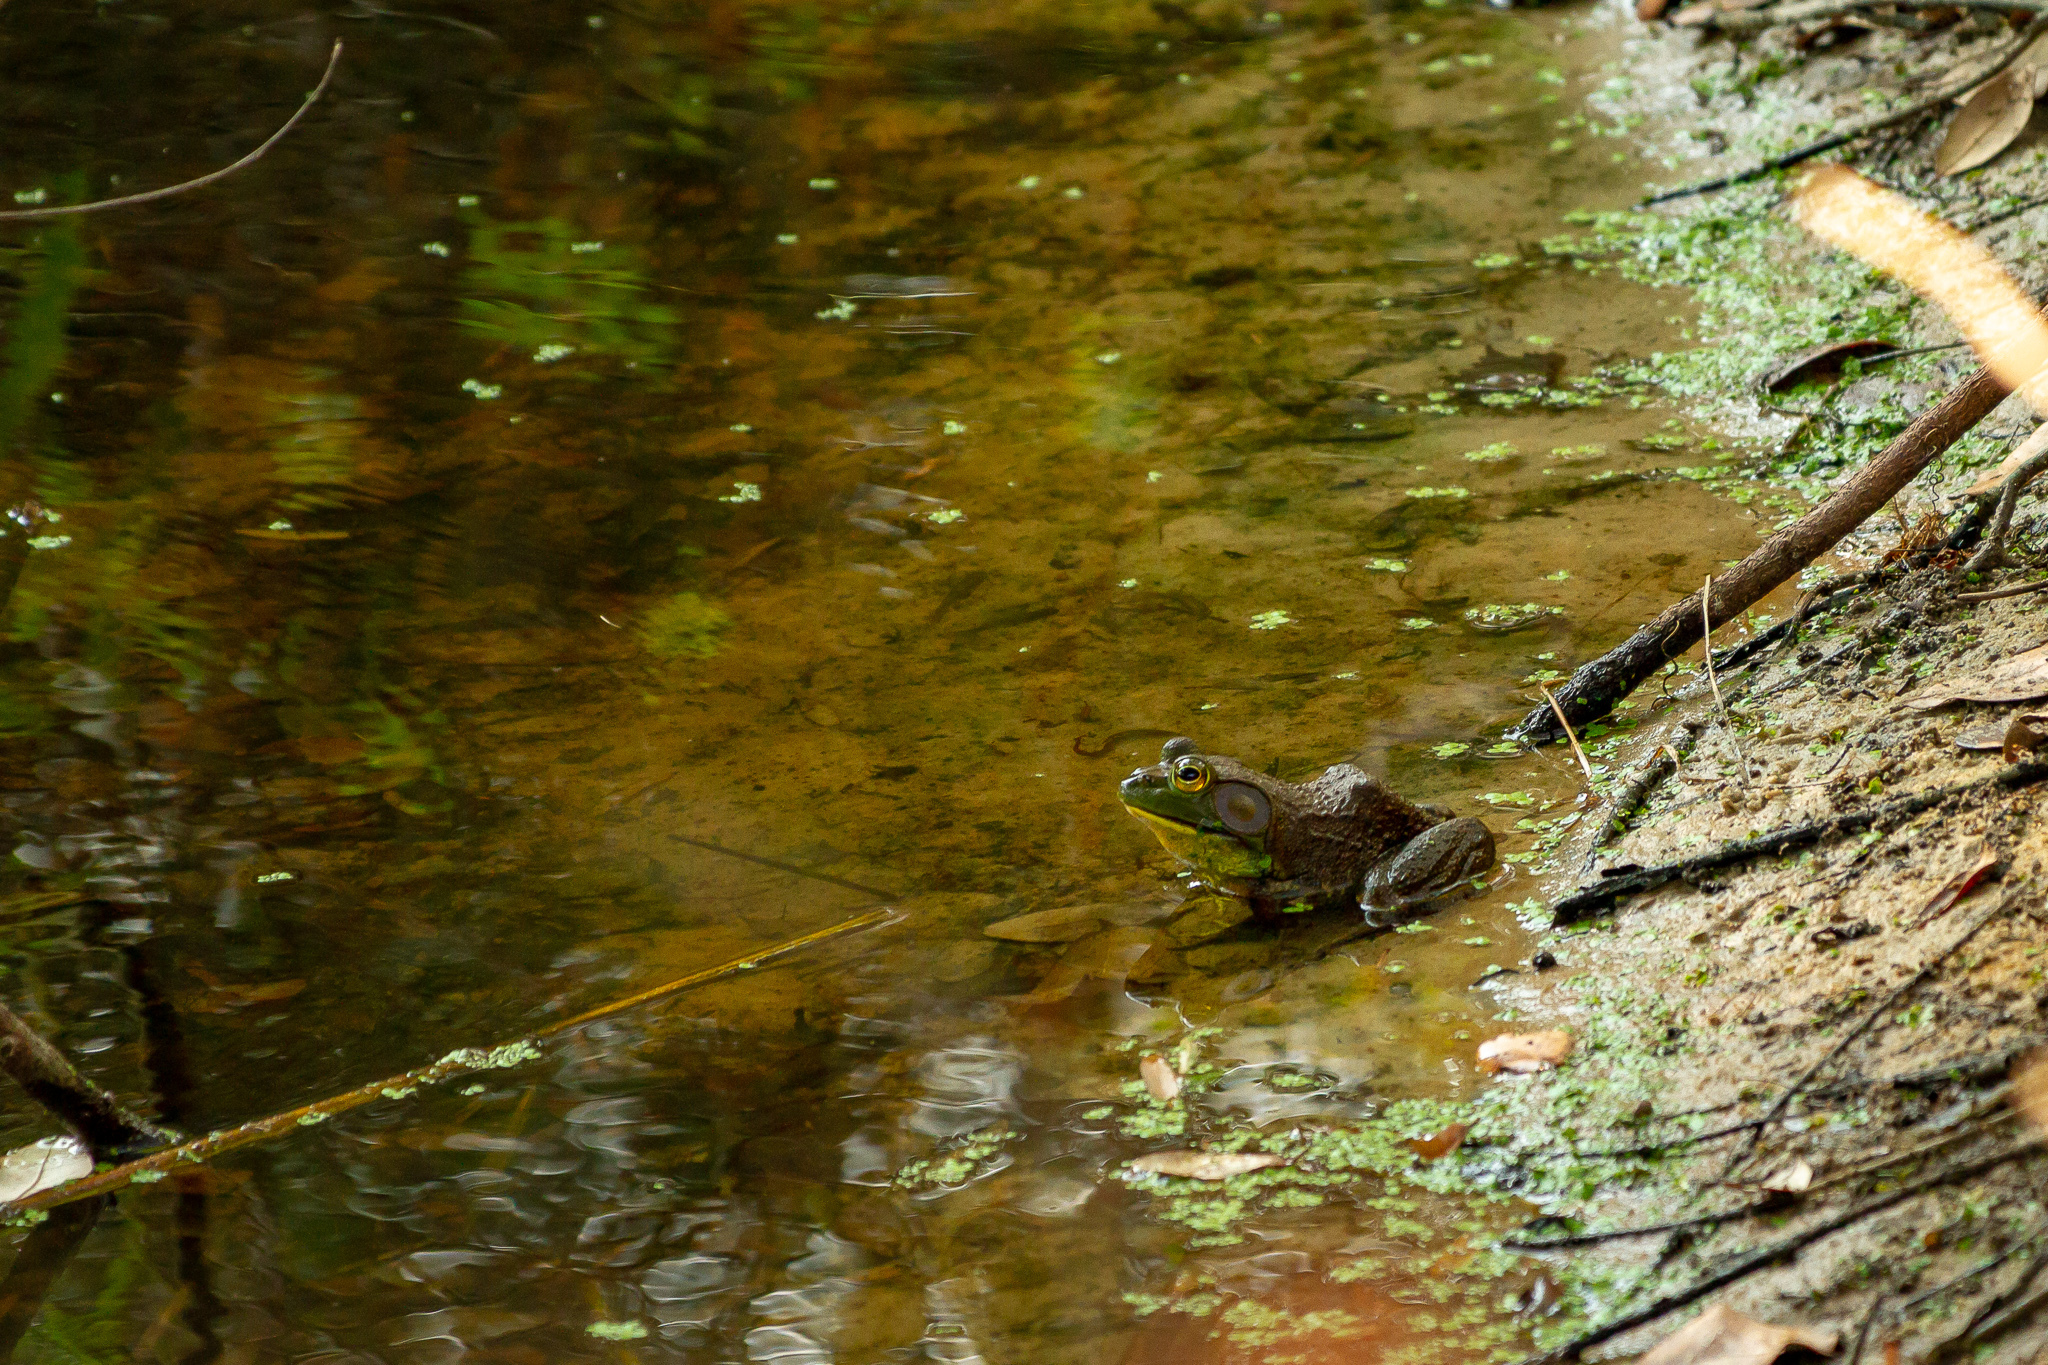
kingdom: Animalia
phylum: Chordata
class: Amphibia
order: Anura
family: Ranidae
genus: Lithobates
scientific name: Lithobates catesbeianus
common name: American bullfrog
